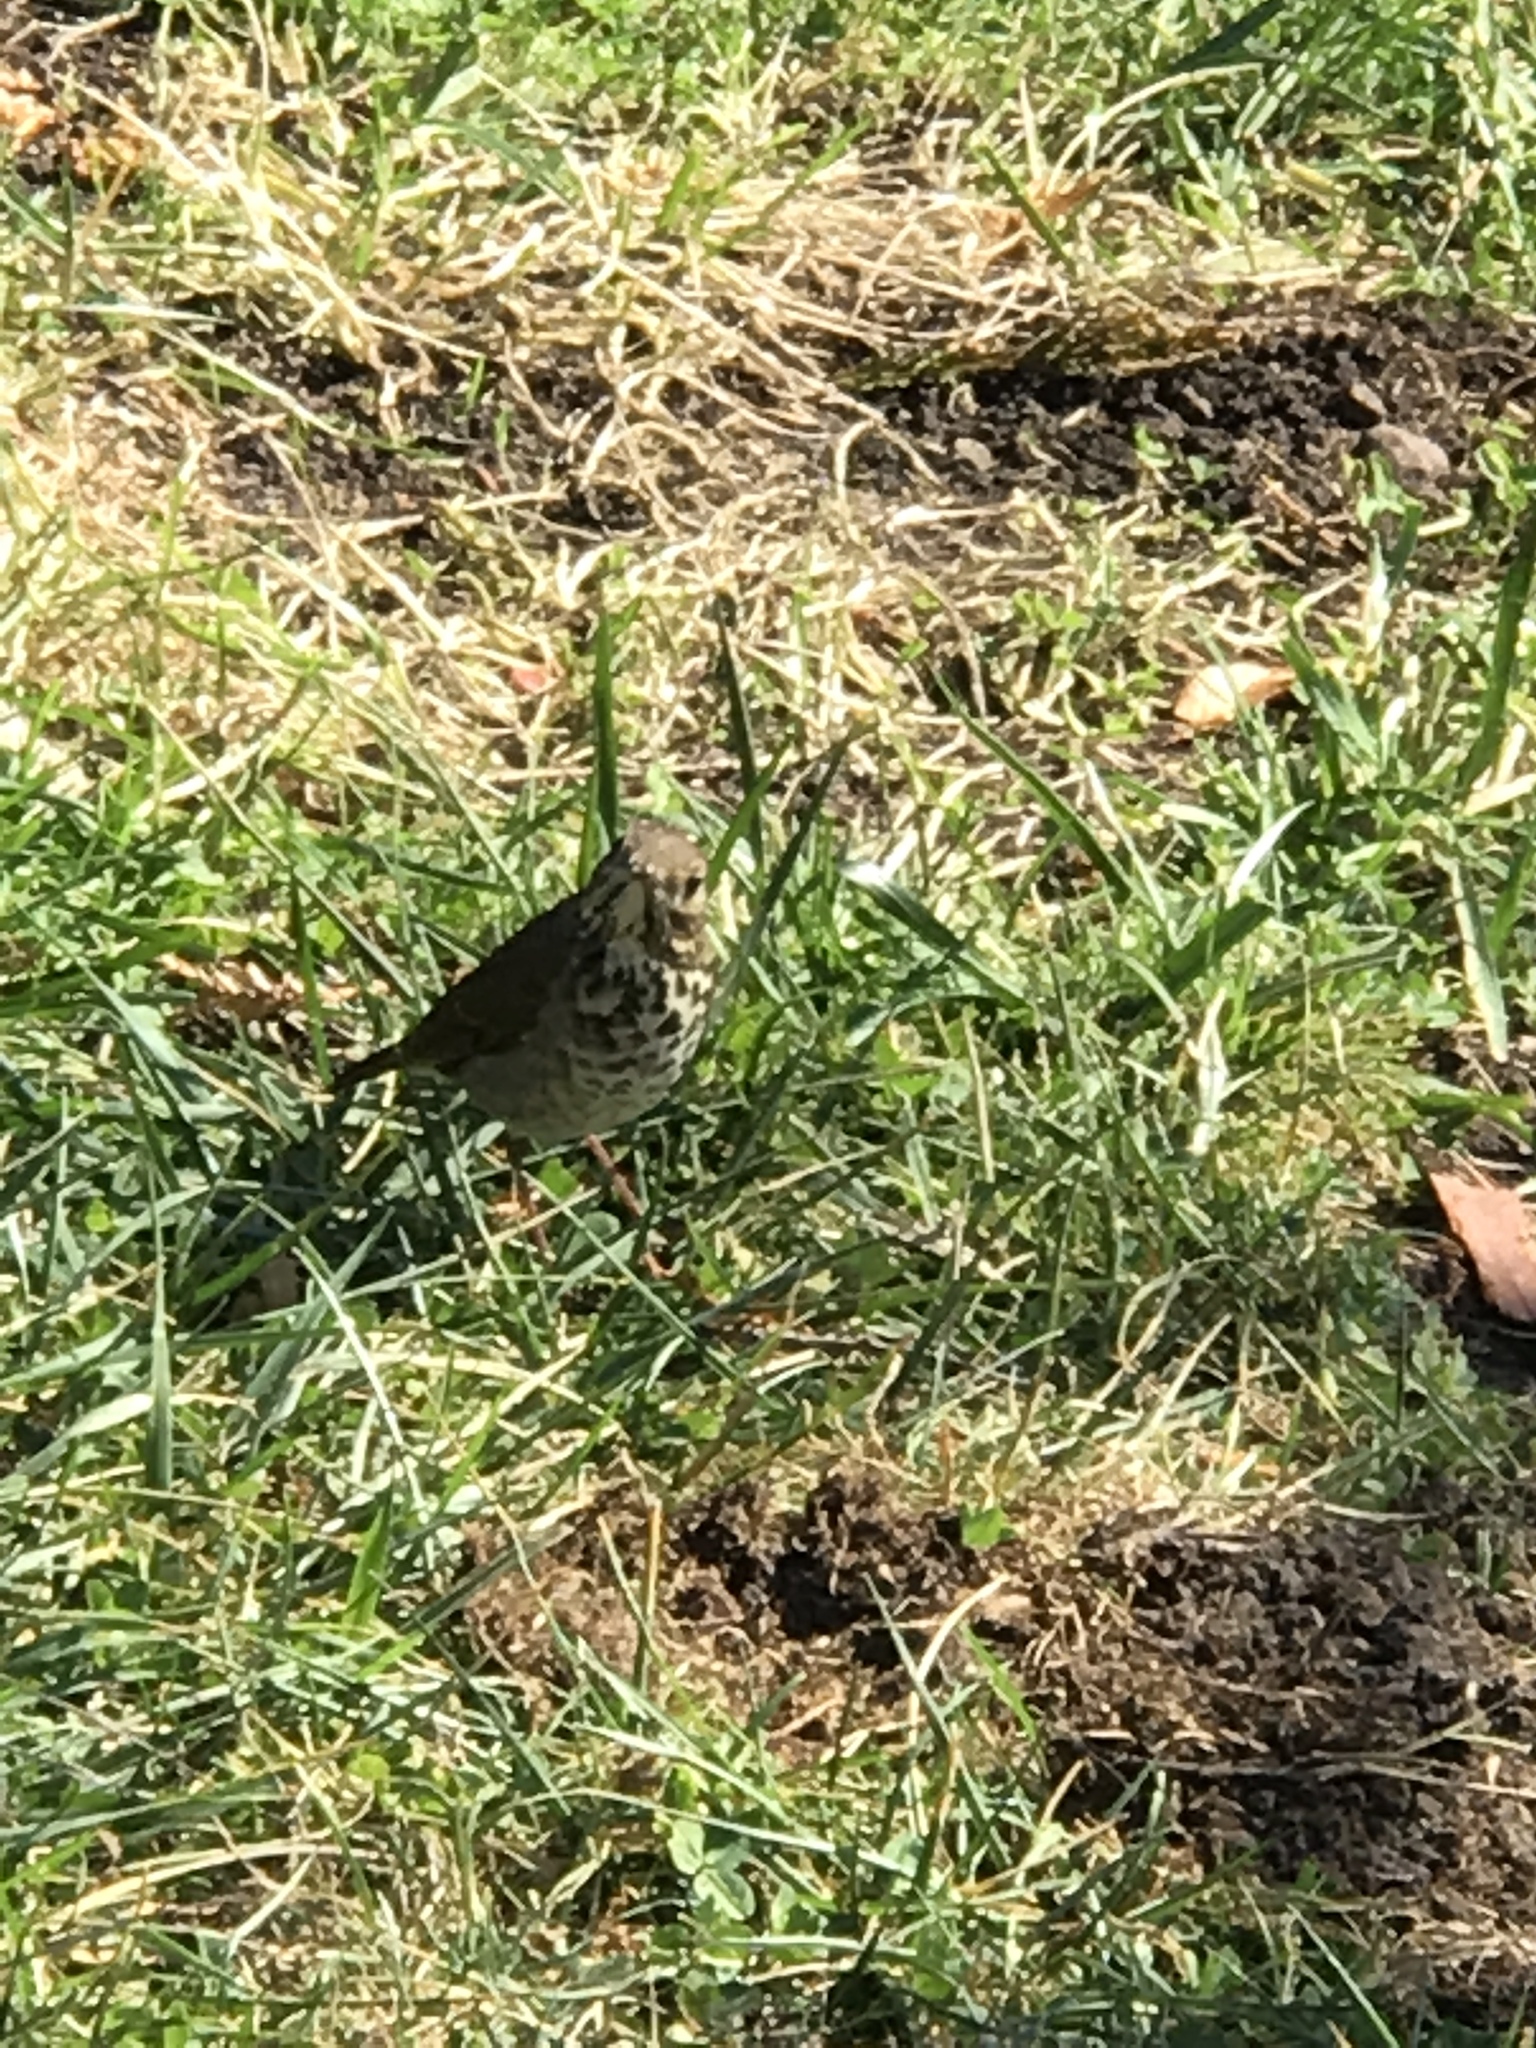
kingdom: Animalia
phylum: Chordata
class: Aves
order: Passeriformes
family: Turdidae
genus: Catharus
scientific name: Catharus guttatus
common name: Hermit thrush
